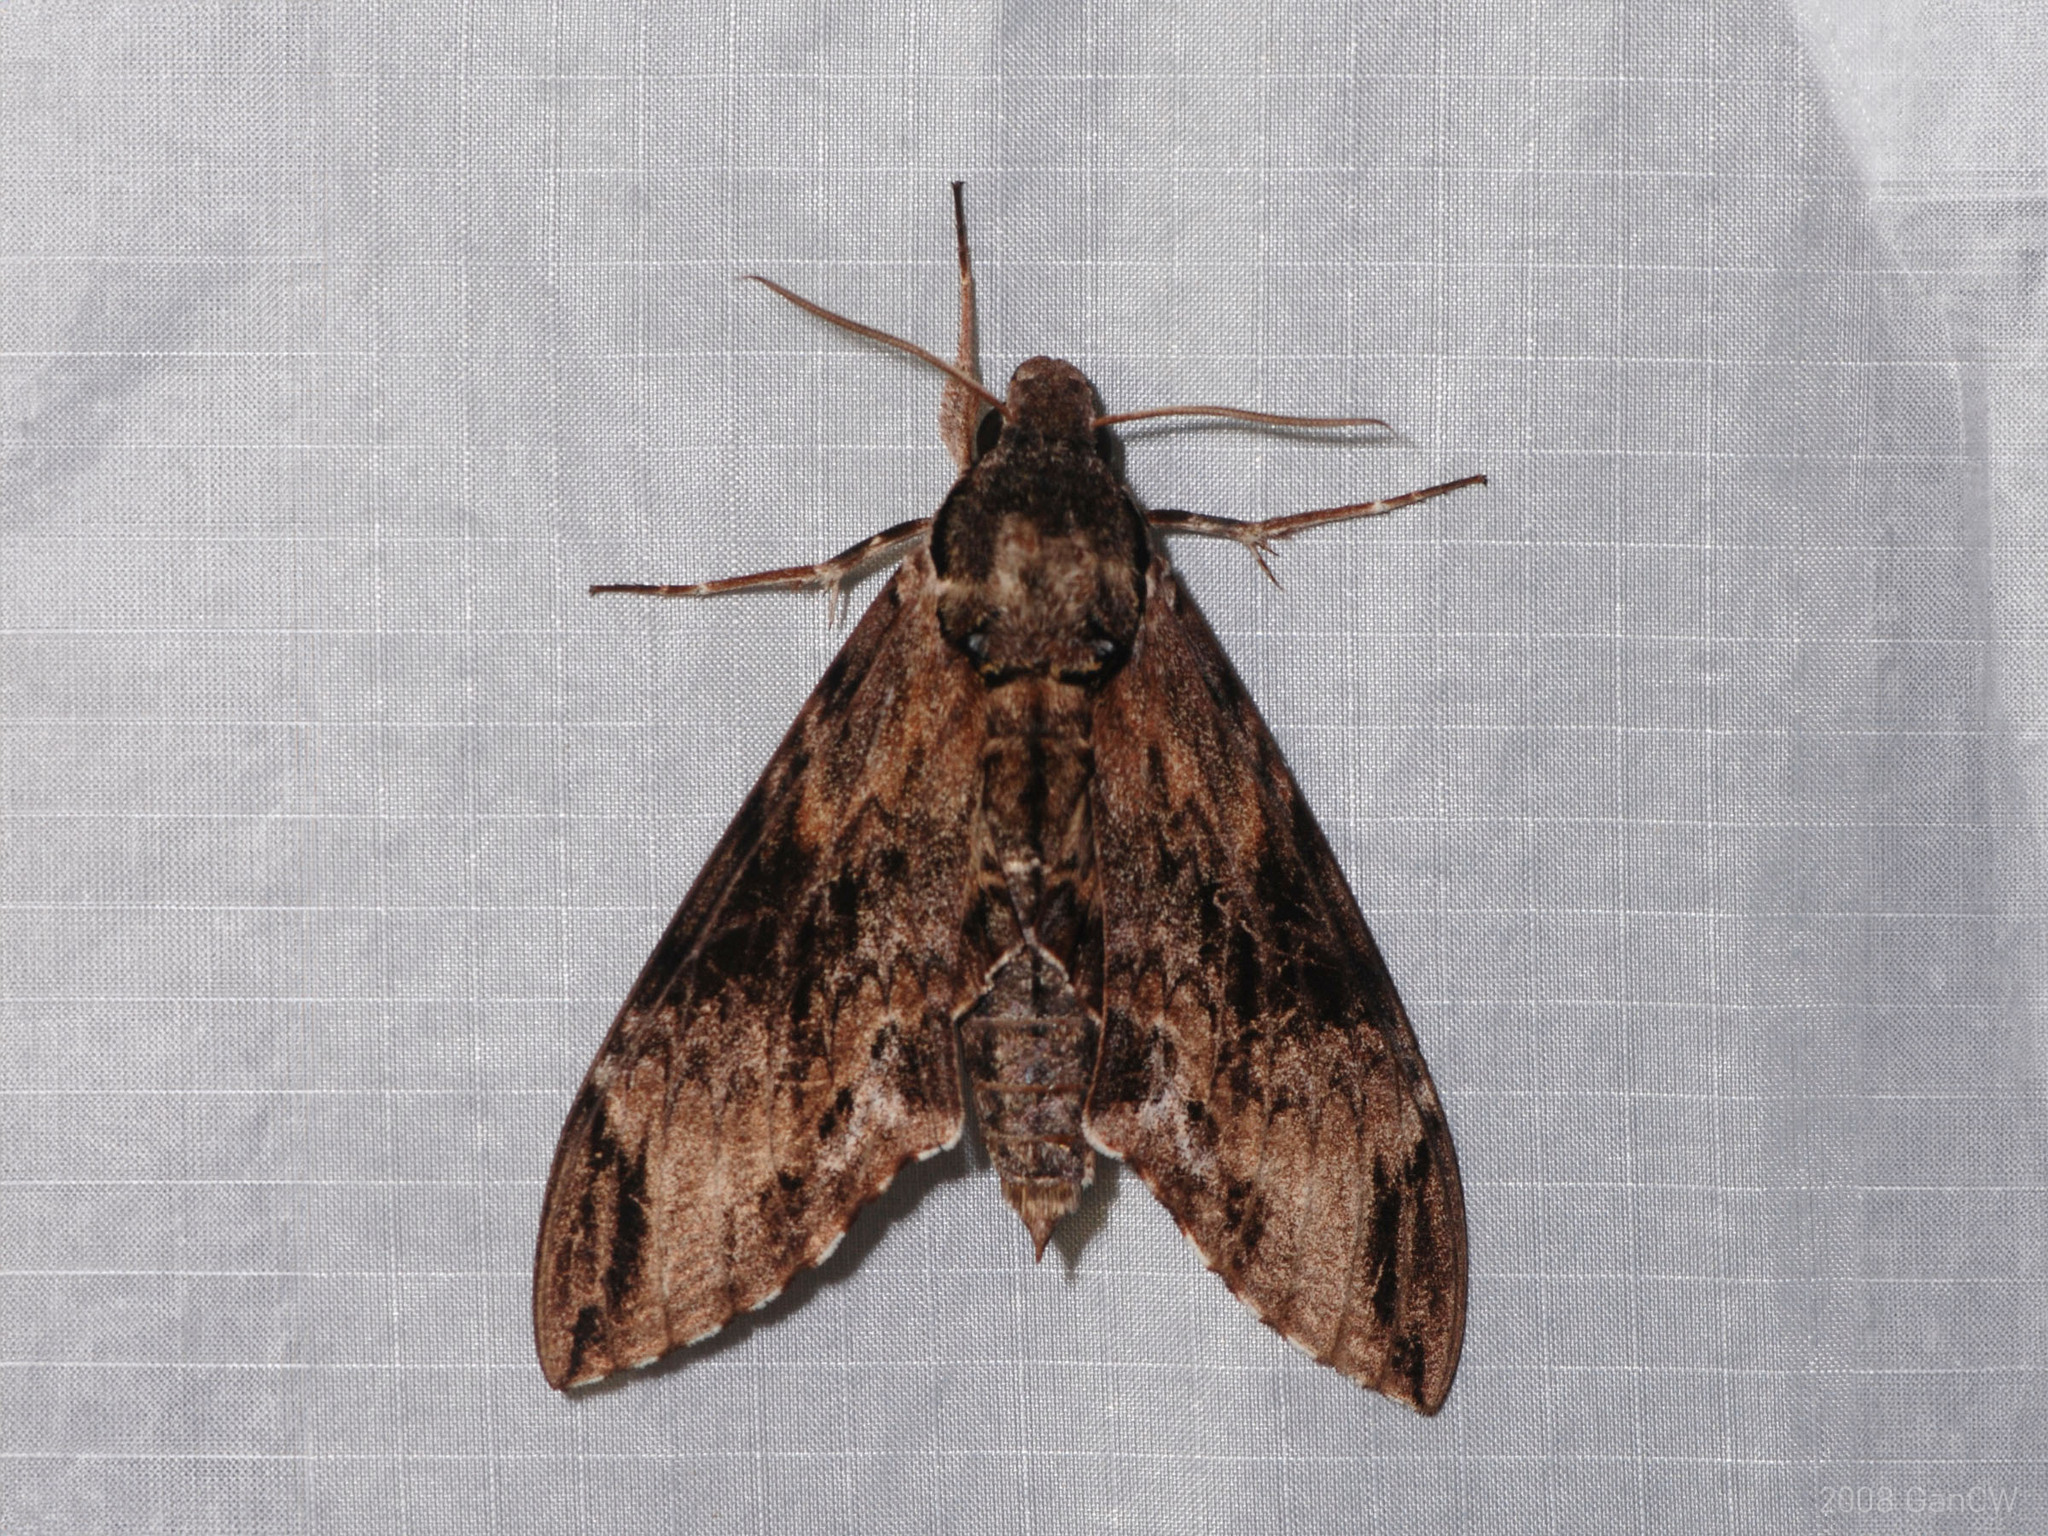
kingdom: Animalia
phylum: Arthropoda
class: Insecta
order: Lepidoptera
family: Sphingidae
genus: Psilogramma
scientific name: Psilogramma menephron
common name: Gray hawk moth
